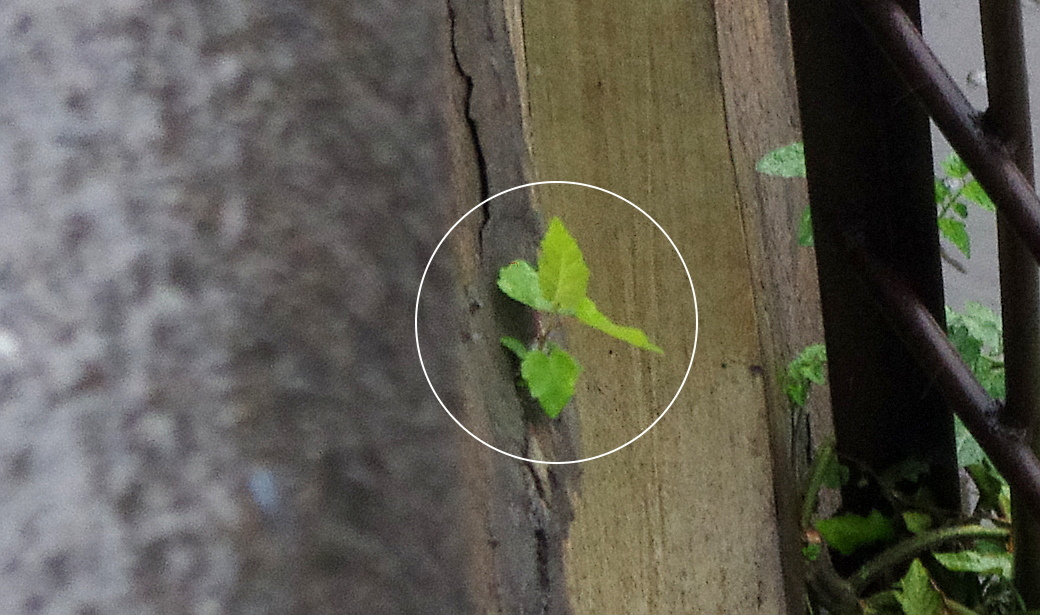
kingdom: Plantae
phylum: Tracheophyta
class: Magnoliopsida
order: Fagales
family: Betulaceae
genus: Betula
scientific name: Betula pendula
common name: Silver birch
